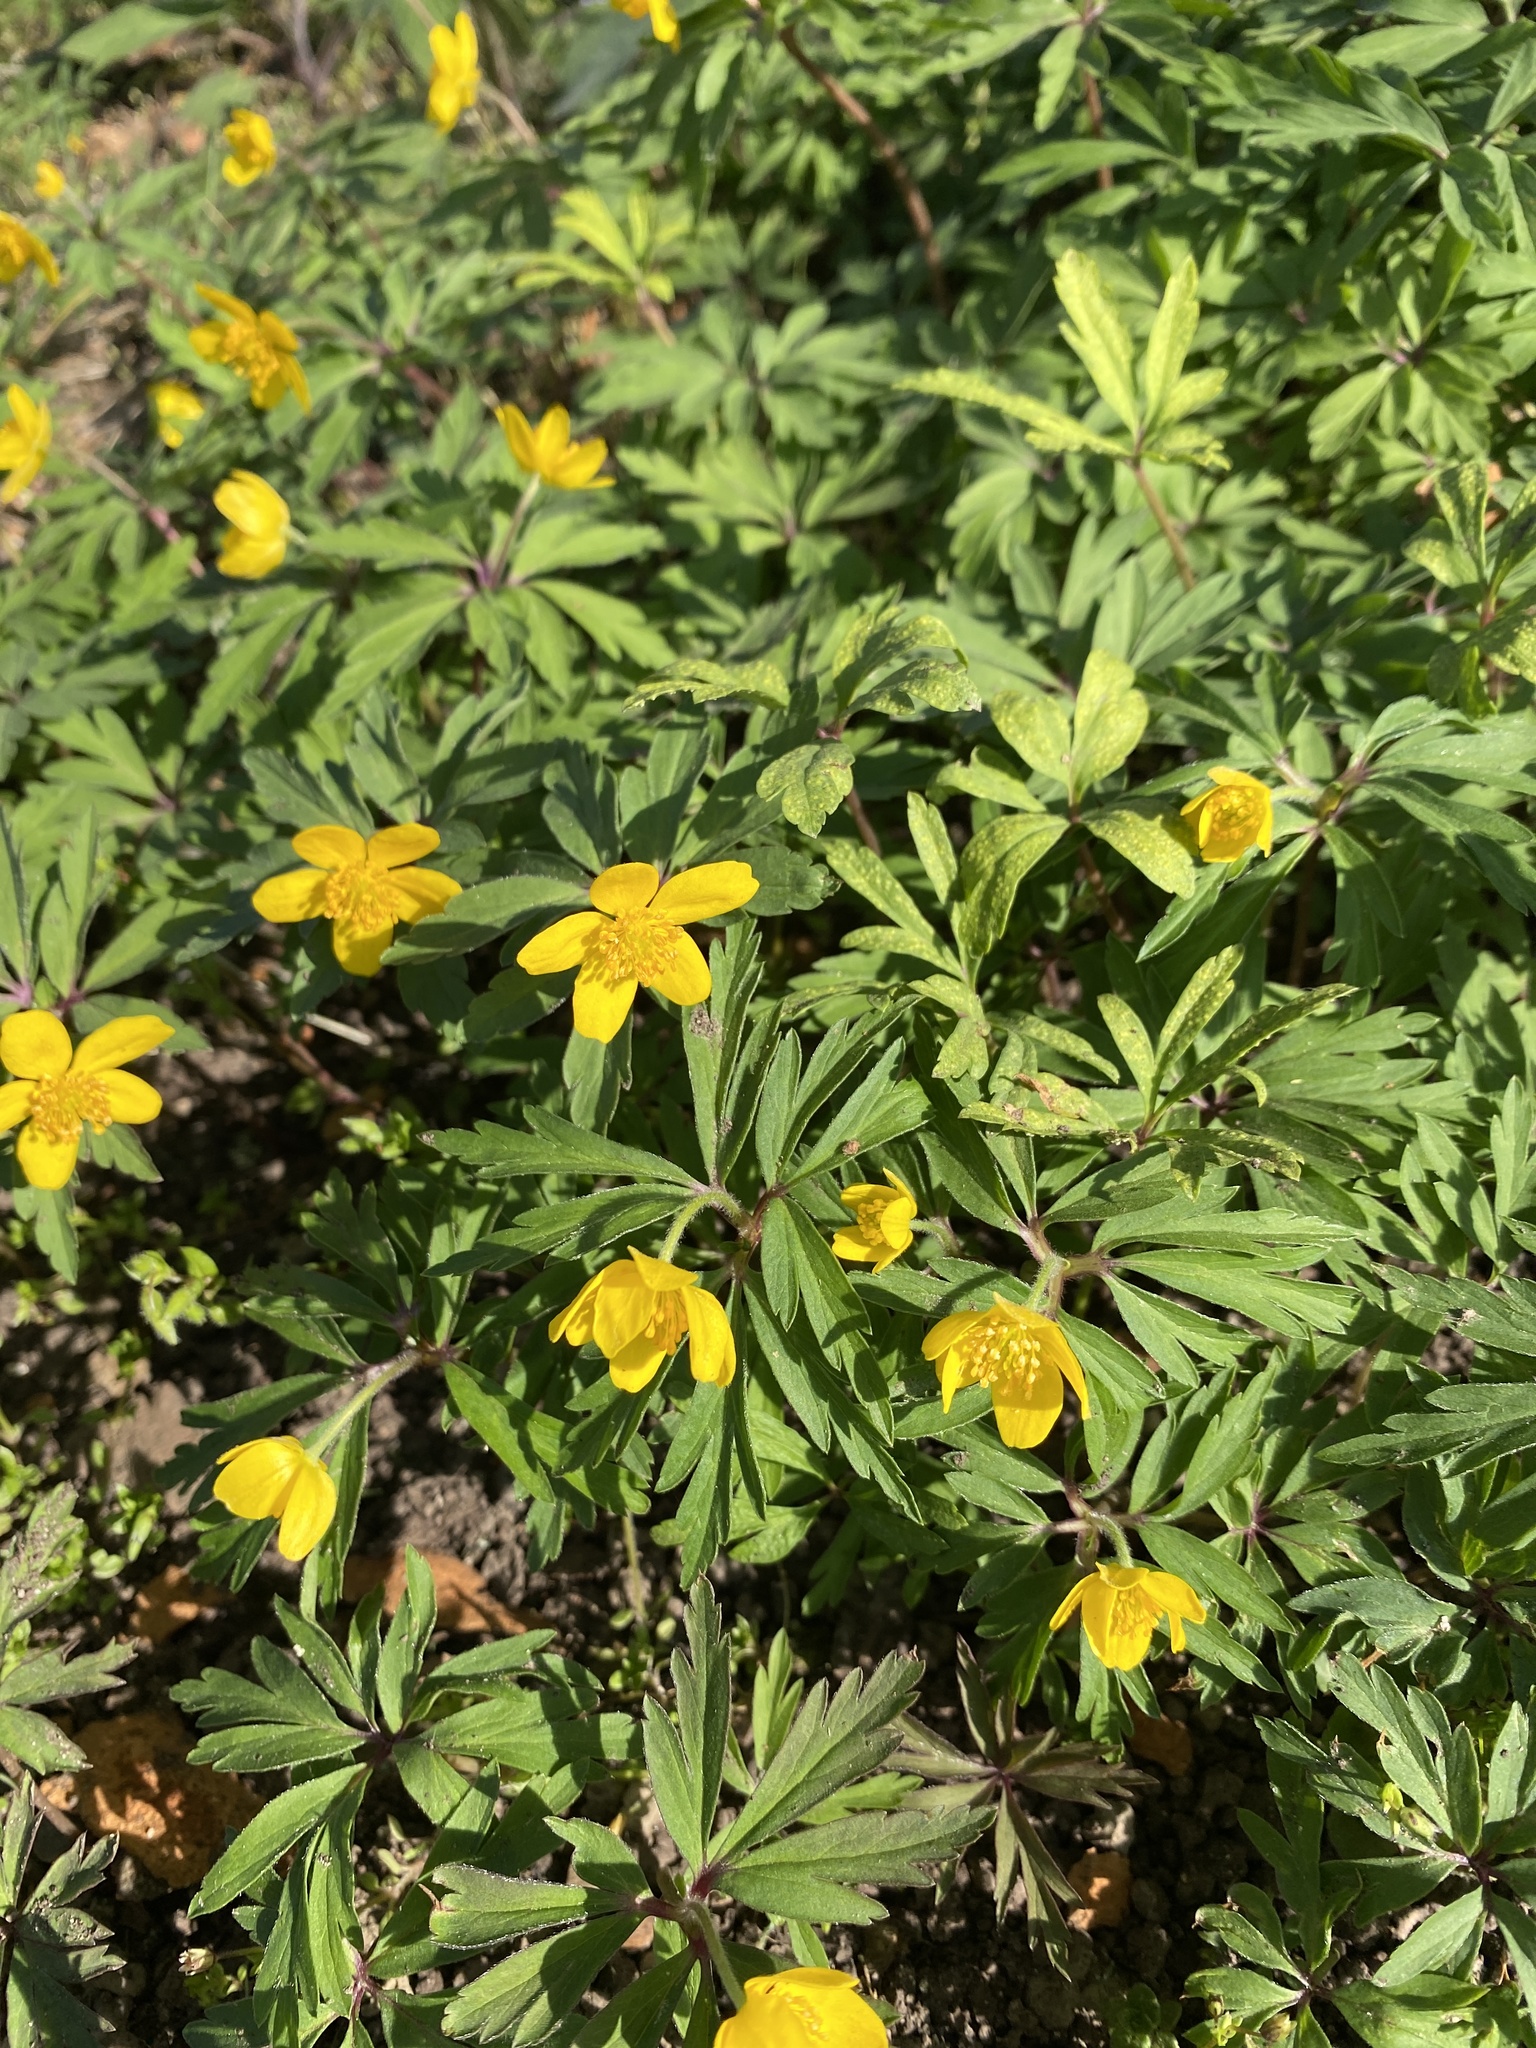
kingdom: Plantae
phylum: Tracheophyta
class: Magnoliopsida
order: Ranunculales
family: Ranunculaceae
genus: Anemone
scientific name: Anemone ranunculoides
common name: Yellow anemone
